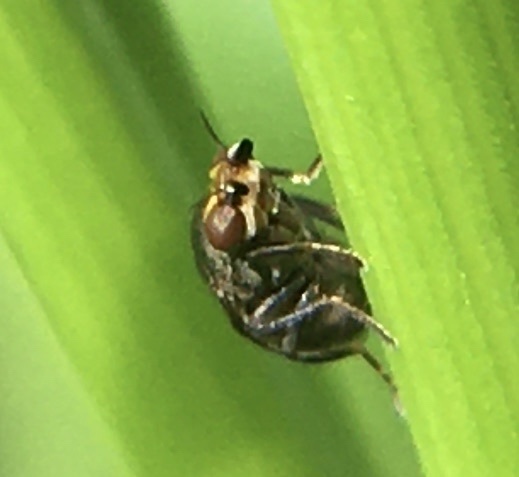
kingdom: Animalia
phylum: Arthropoda
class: Insecta
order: Diptera
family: Chloropidae
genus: Camarota
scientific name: Camarota curvipennis
